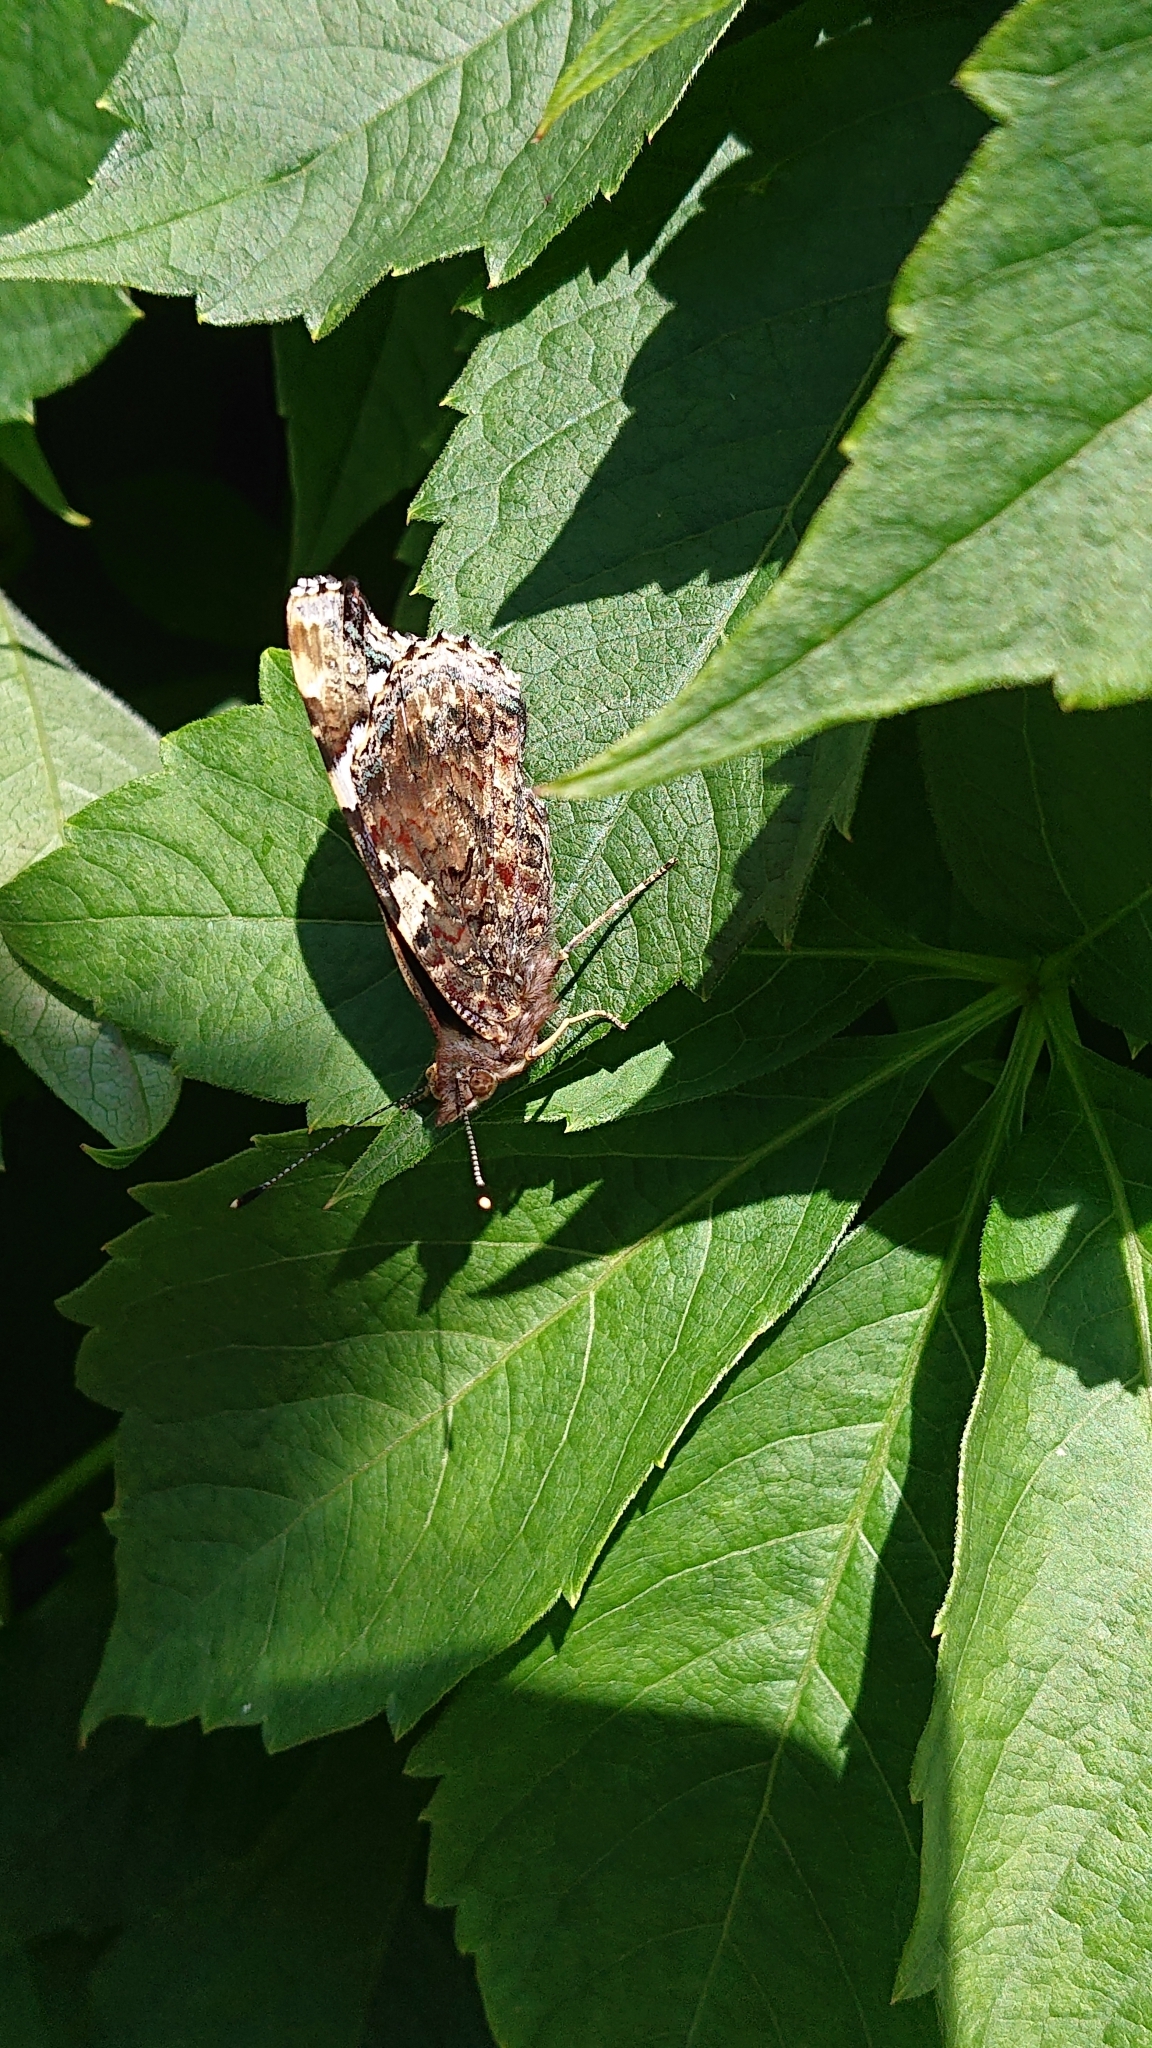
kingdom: Animalia
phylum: Arthropoda
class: Insecta
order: Lepidoptera
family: Nymphalidae
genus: Vanessa
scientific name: Vanessa atalanta
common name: Red admiral
